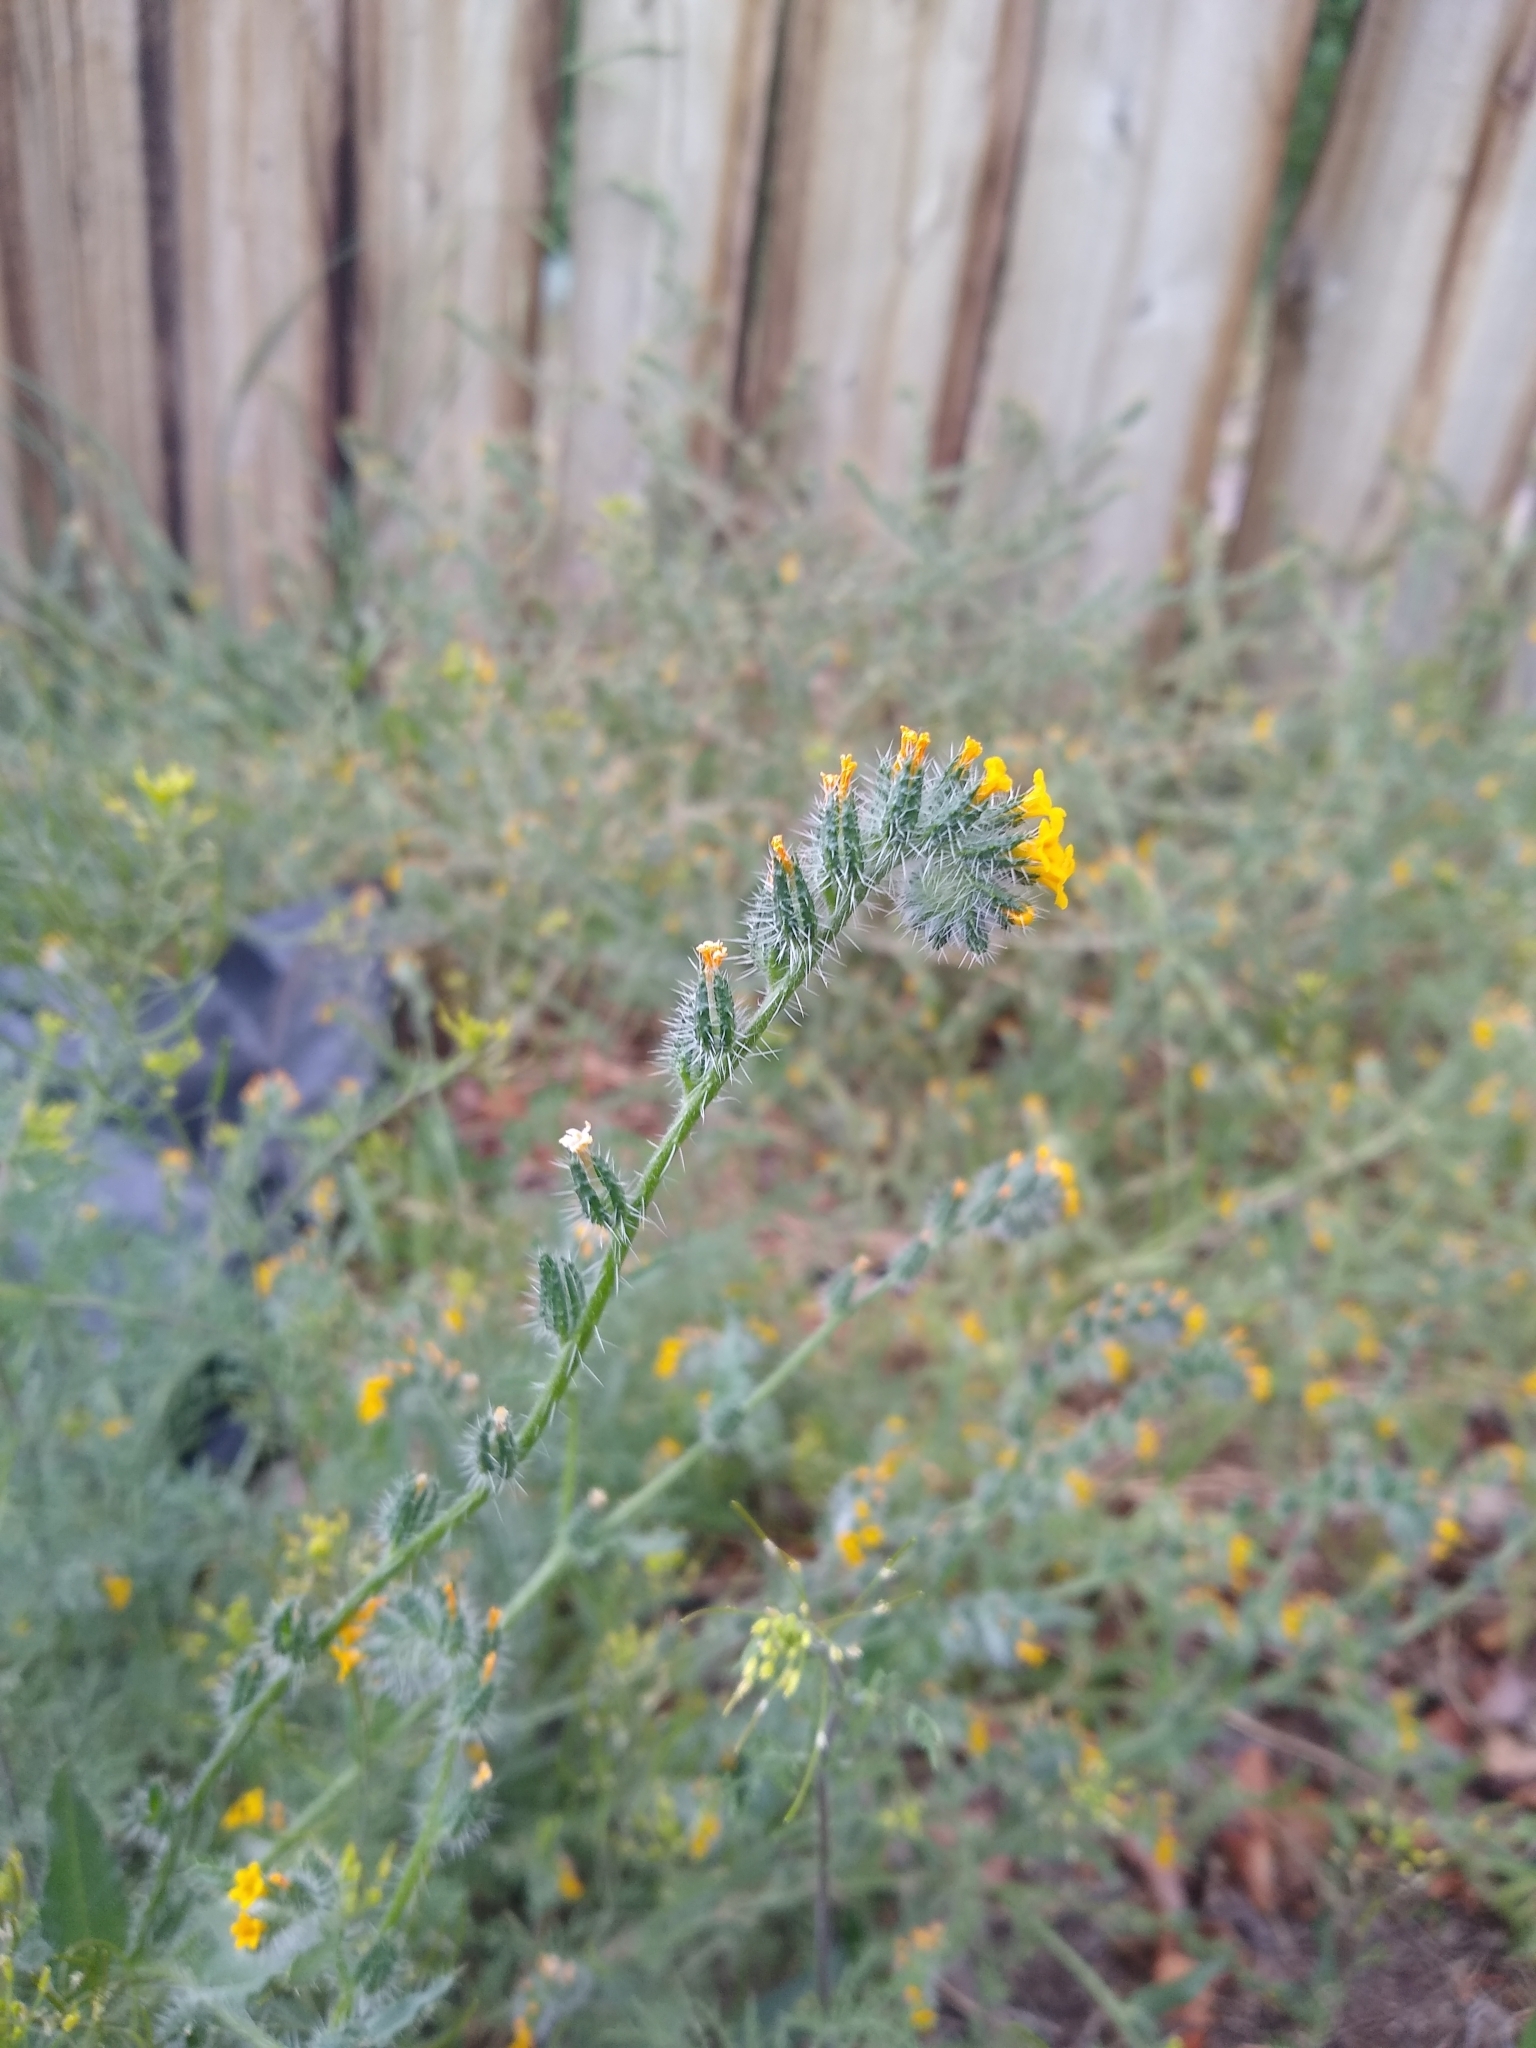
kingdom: Plantae
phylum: Tracheophyta
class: Magnoliopsida
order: Boraginales
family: Boraginaceae
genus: Amsinckia
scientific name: Amsinckia calycina
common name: Hairy fiddleneck
